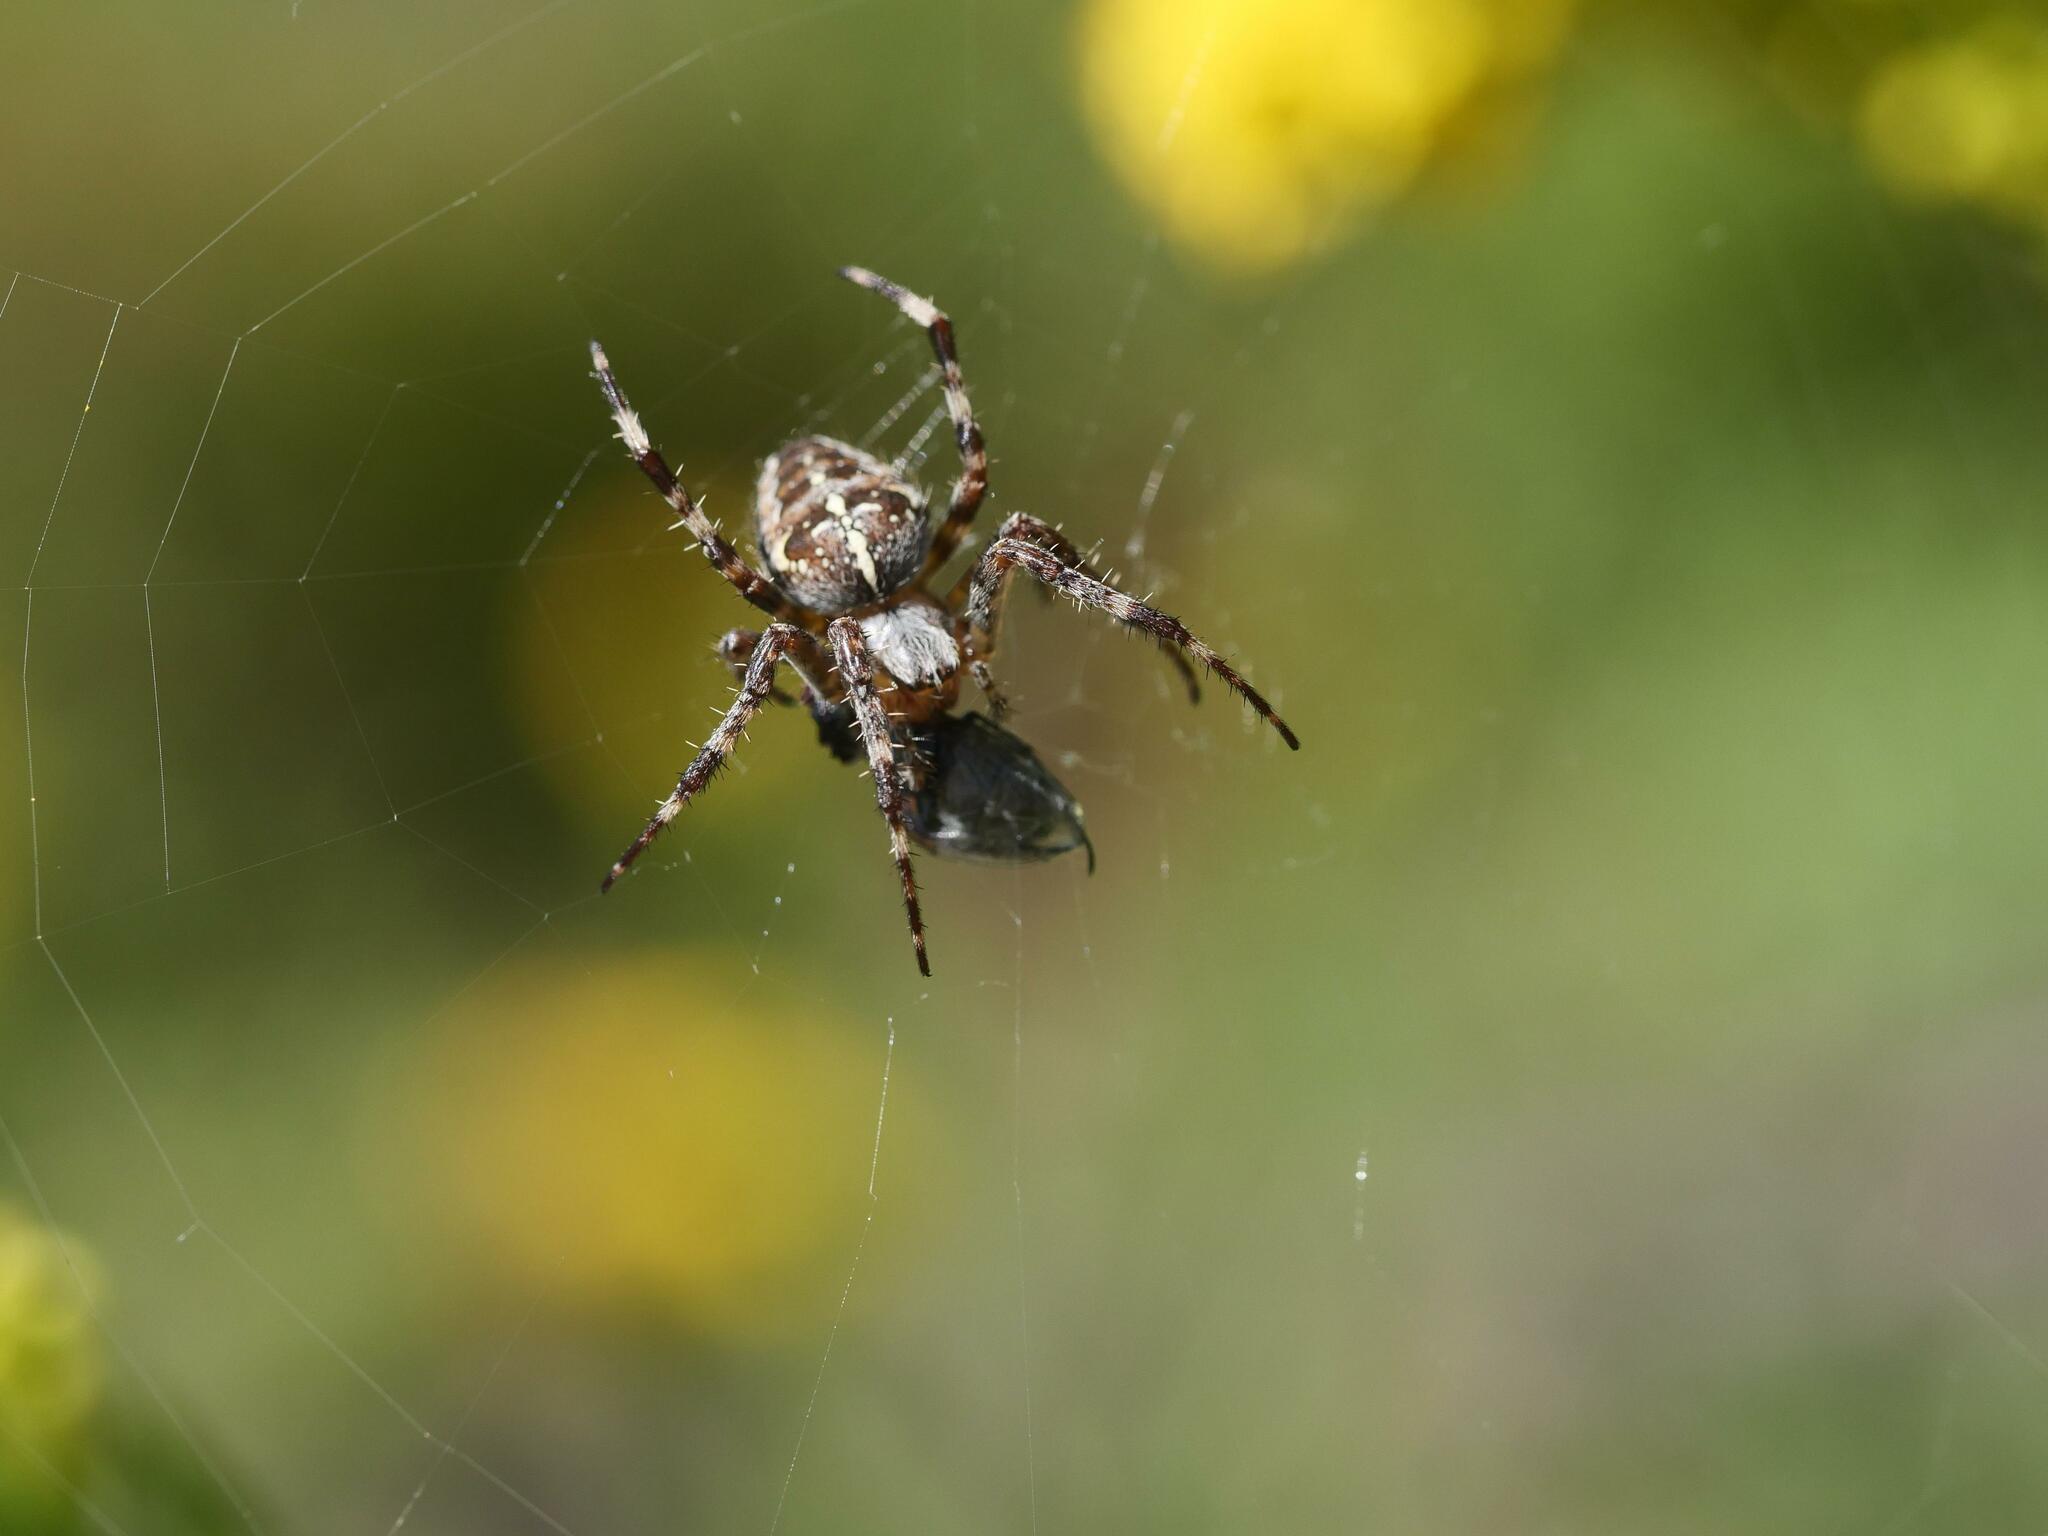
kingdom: Animalia
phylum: Arthropoda
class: Arachnida
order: Araneae
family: Araneidae
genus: Araneus
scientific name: Araneus diadematus
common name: Cross orbweaver
